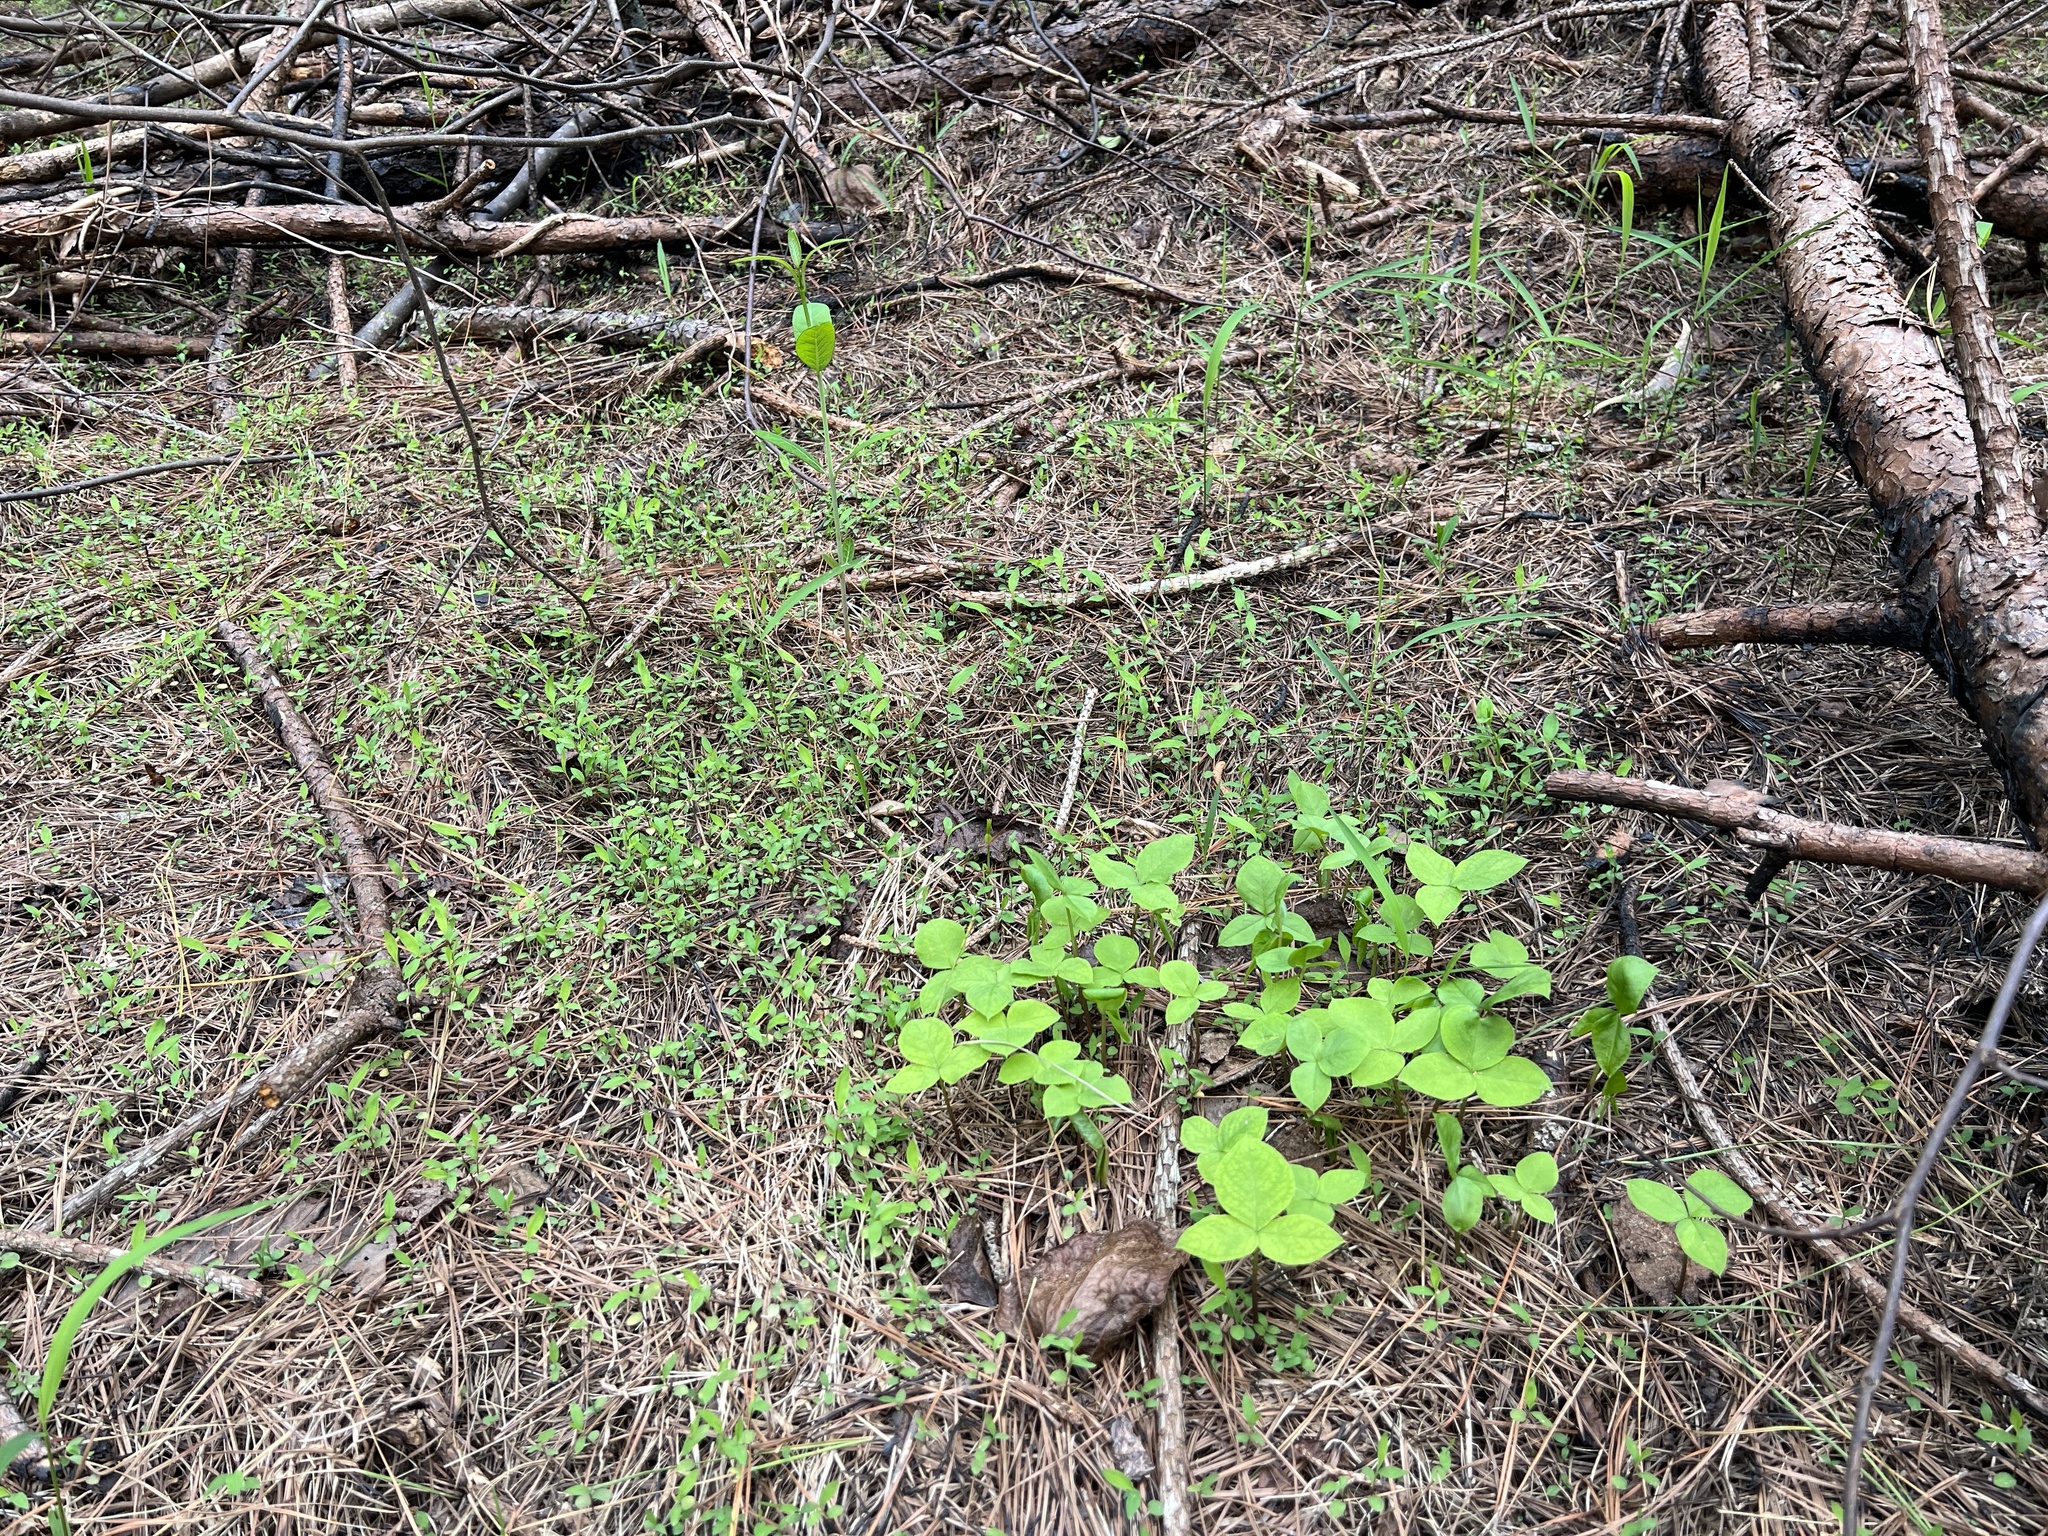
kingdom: Plantae
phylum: Tracheophyta
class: Liliopsida
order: Alismatales
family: Araceae
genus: Arisaema
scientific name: Arisaema triphyllum
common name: Jack-in-the-pulpit
